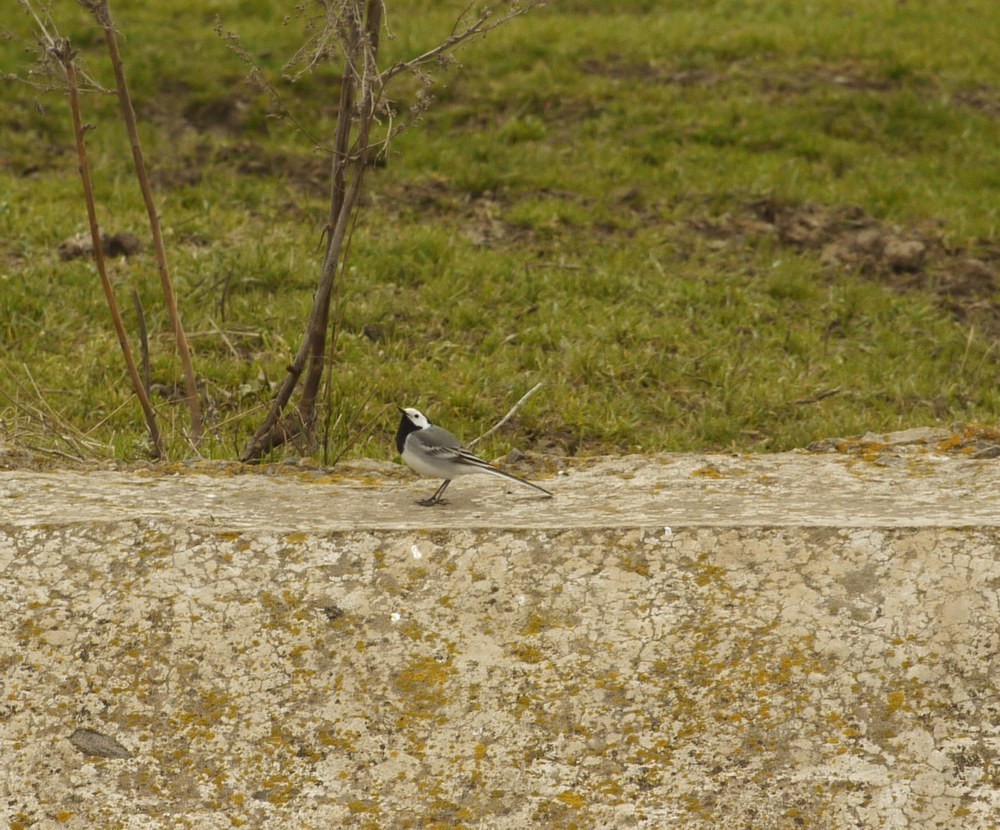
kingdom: Animalia
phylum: Chordata
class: Aves
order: Passeriformes
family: Motacillidae
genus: Motacilla
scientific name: Motacilla alba
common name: White wagtail
